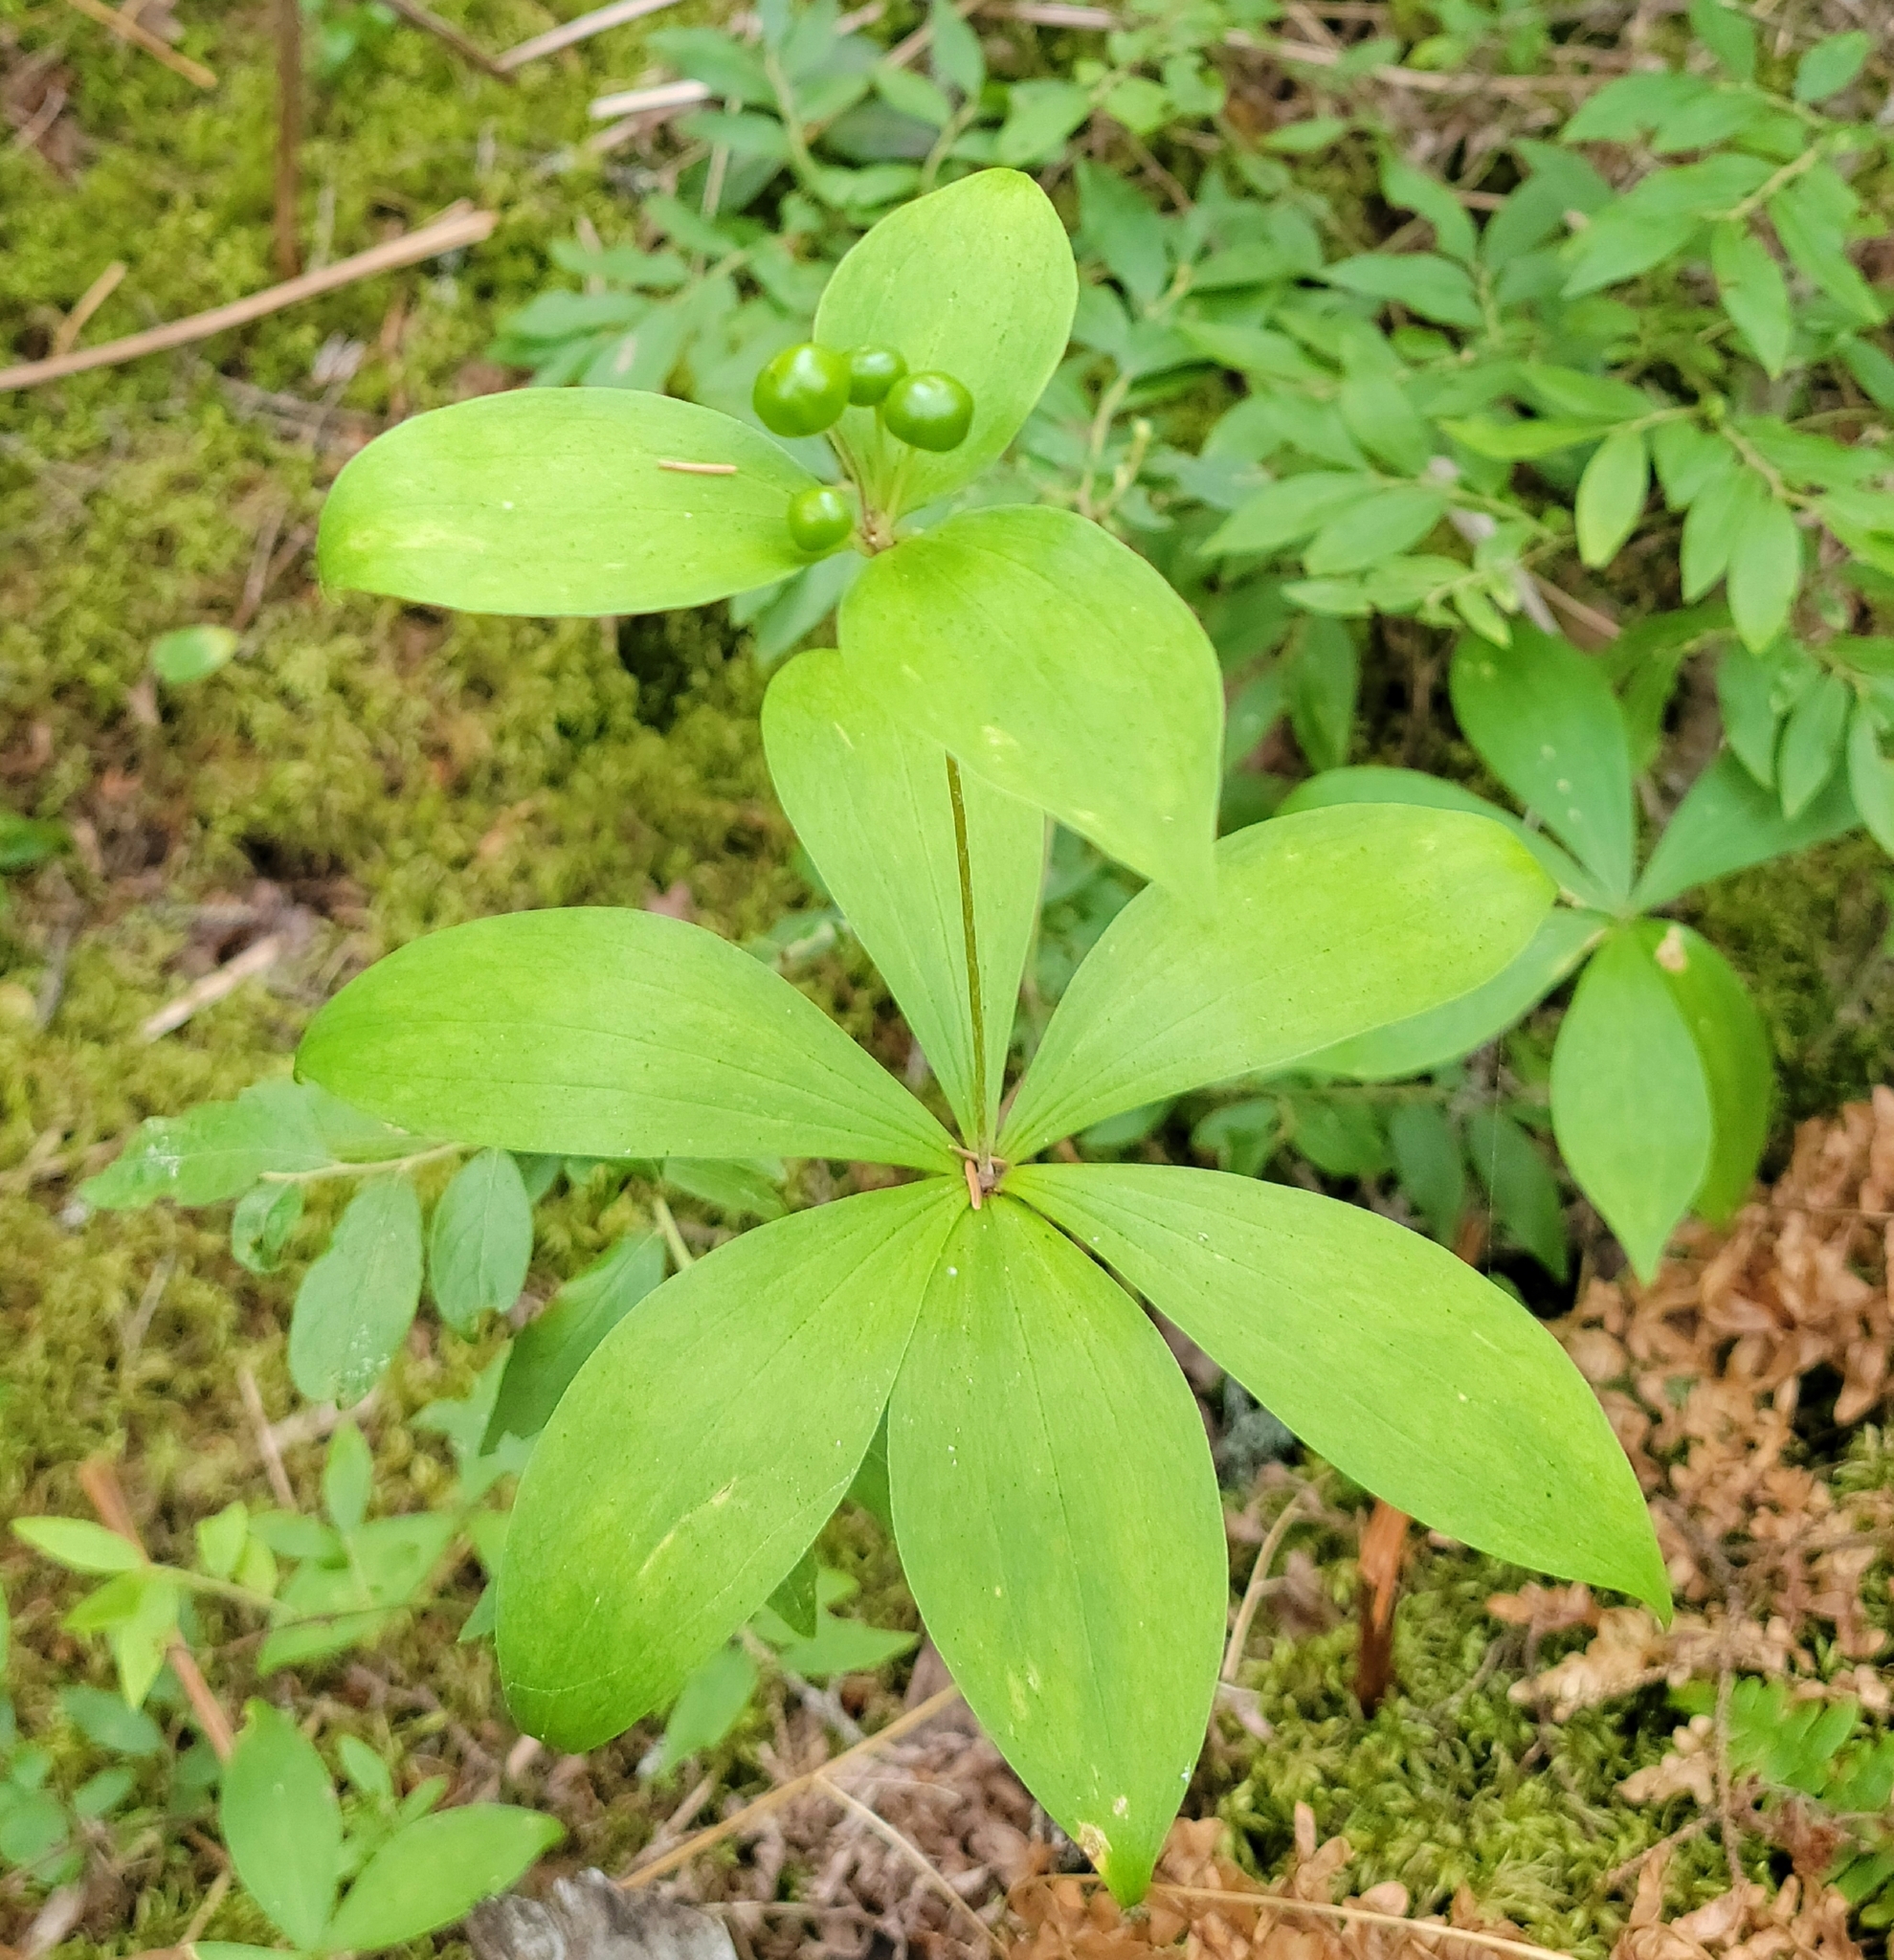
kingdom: Plantae
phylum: Tracheophyta
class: Liliopsida
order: Liliales
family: Liliaceae
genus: Medeola
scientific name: Medeola virginiana
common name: Indian cucumber-root
